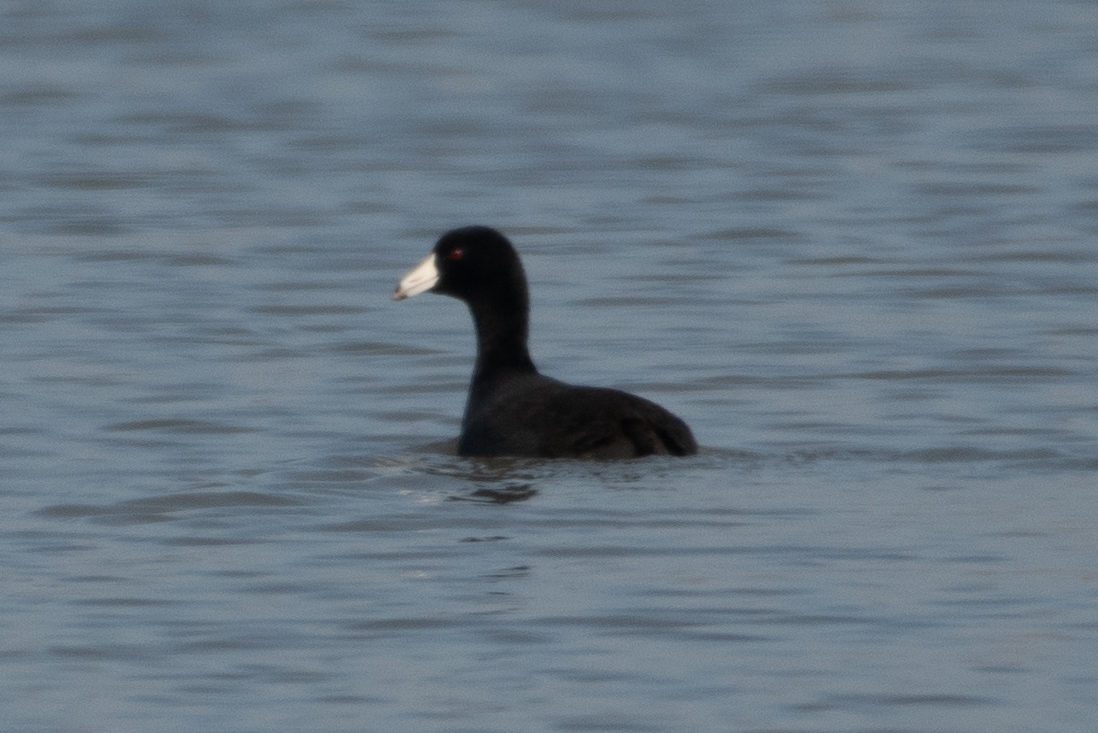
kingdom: Animalia
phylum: Chordata
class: Aves
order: Gruiformes
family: Rallidae
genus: Fulica
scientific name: Fulica americana
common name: American coot
